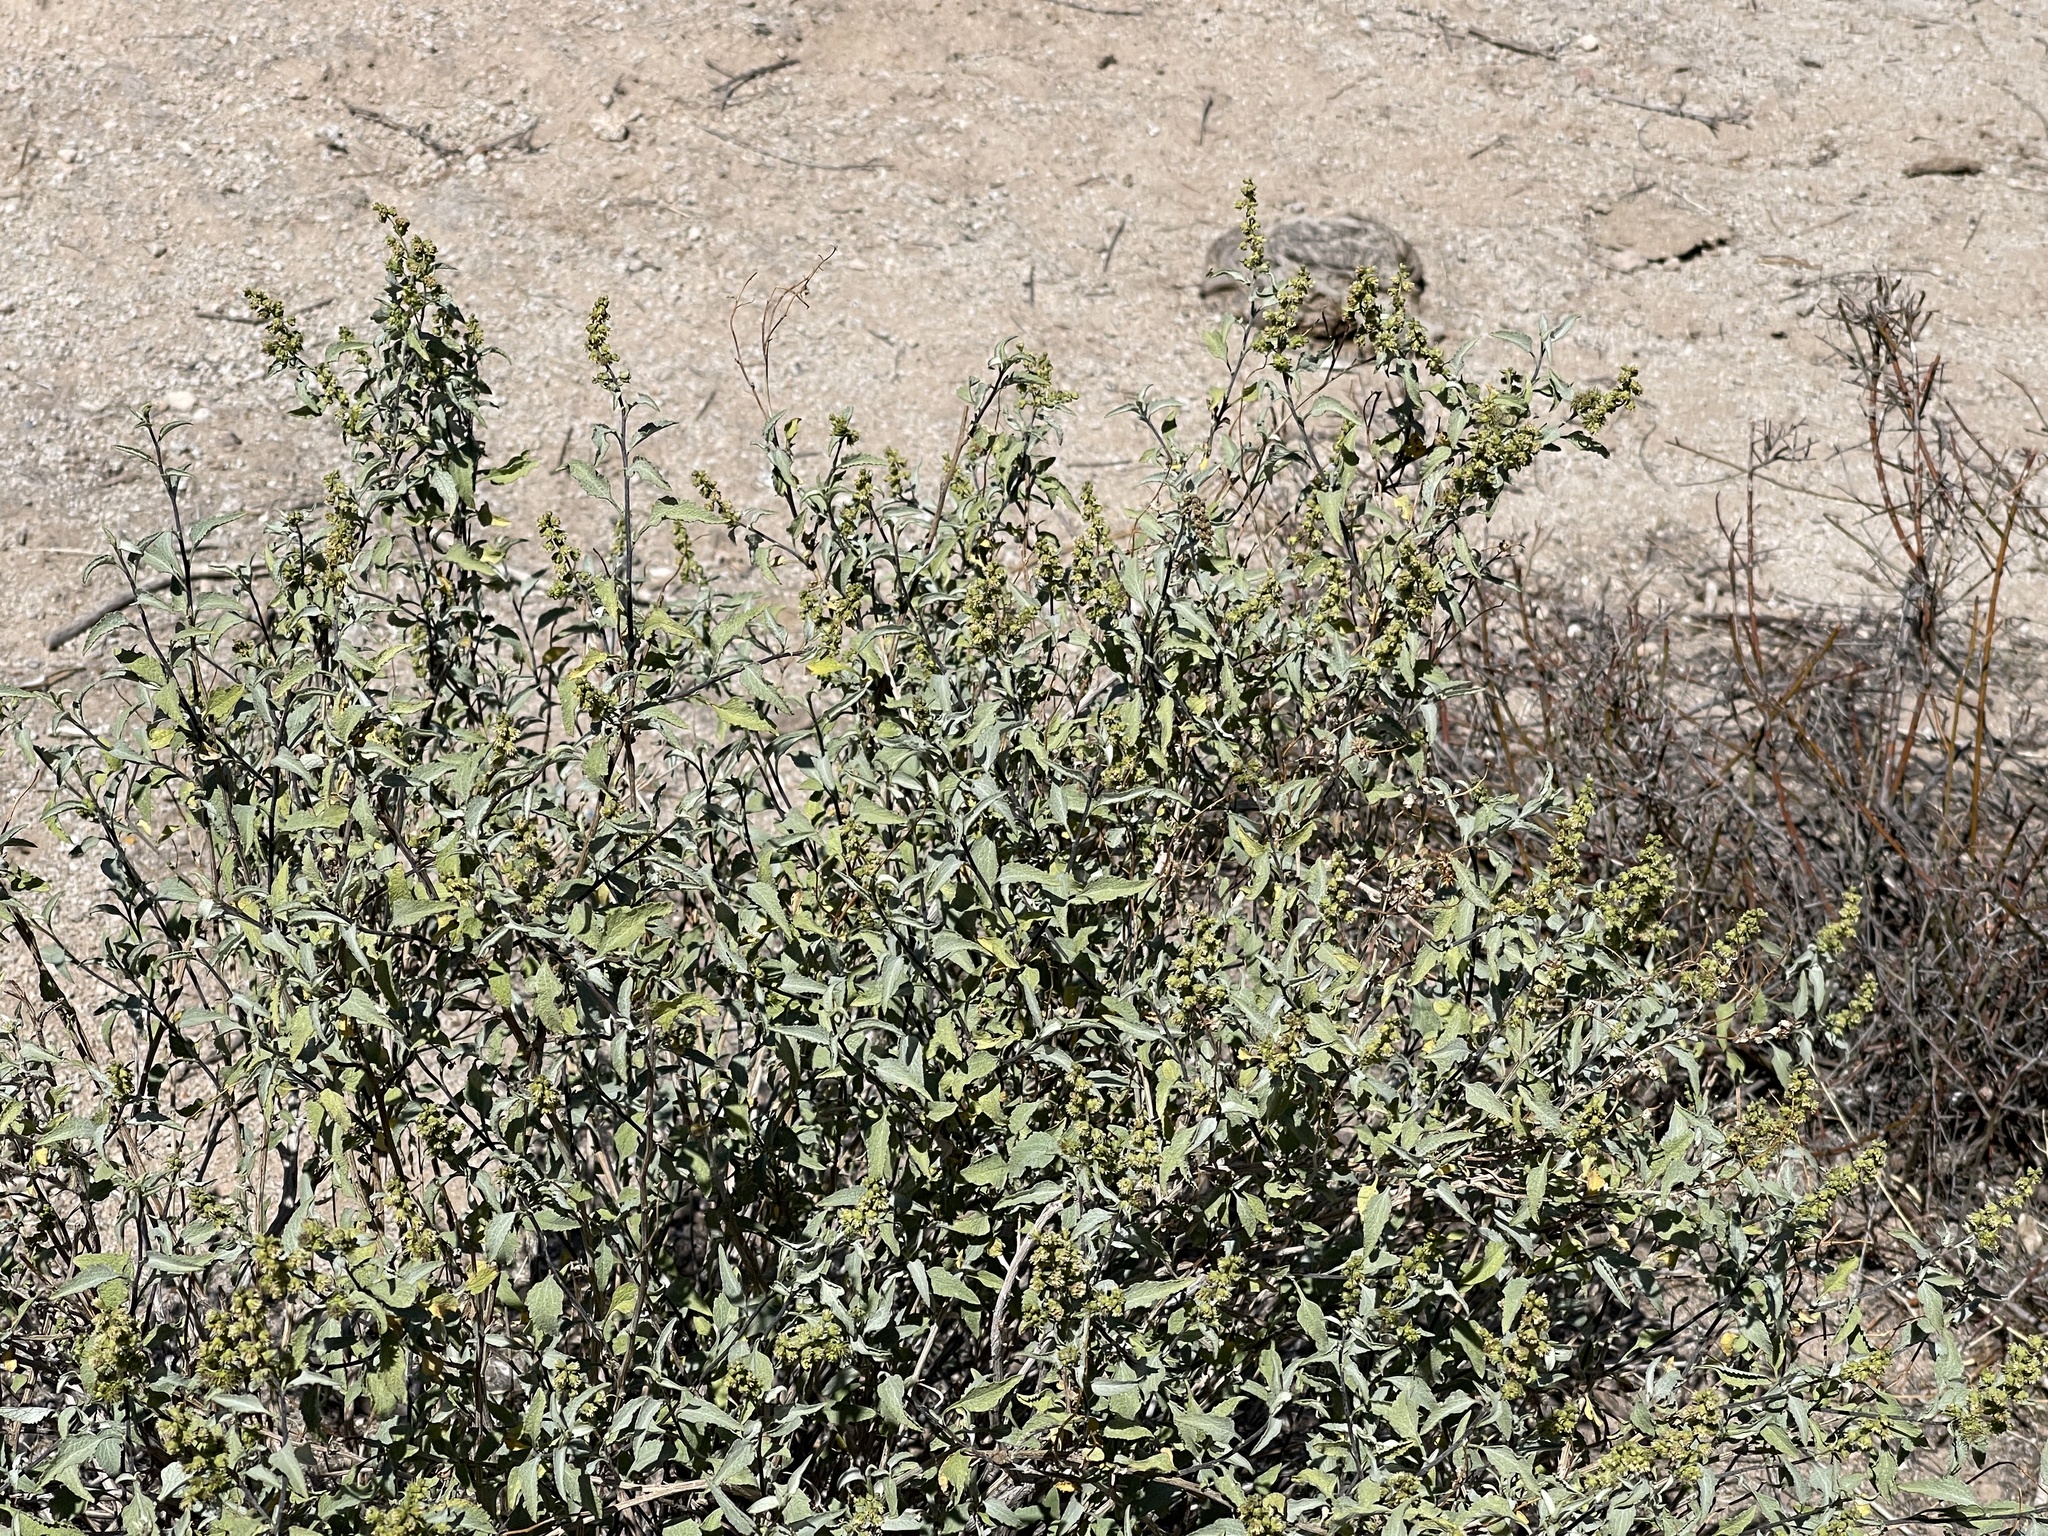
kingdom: Plantae
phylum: Tracheophyta
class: Magnoliopsida
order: Asterales
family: Asteraceae
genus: Ambrosia
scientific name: Ambrosia deltoidea
